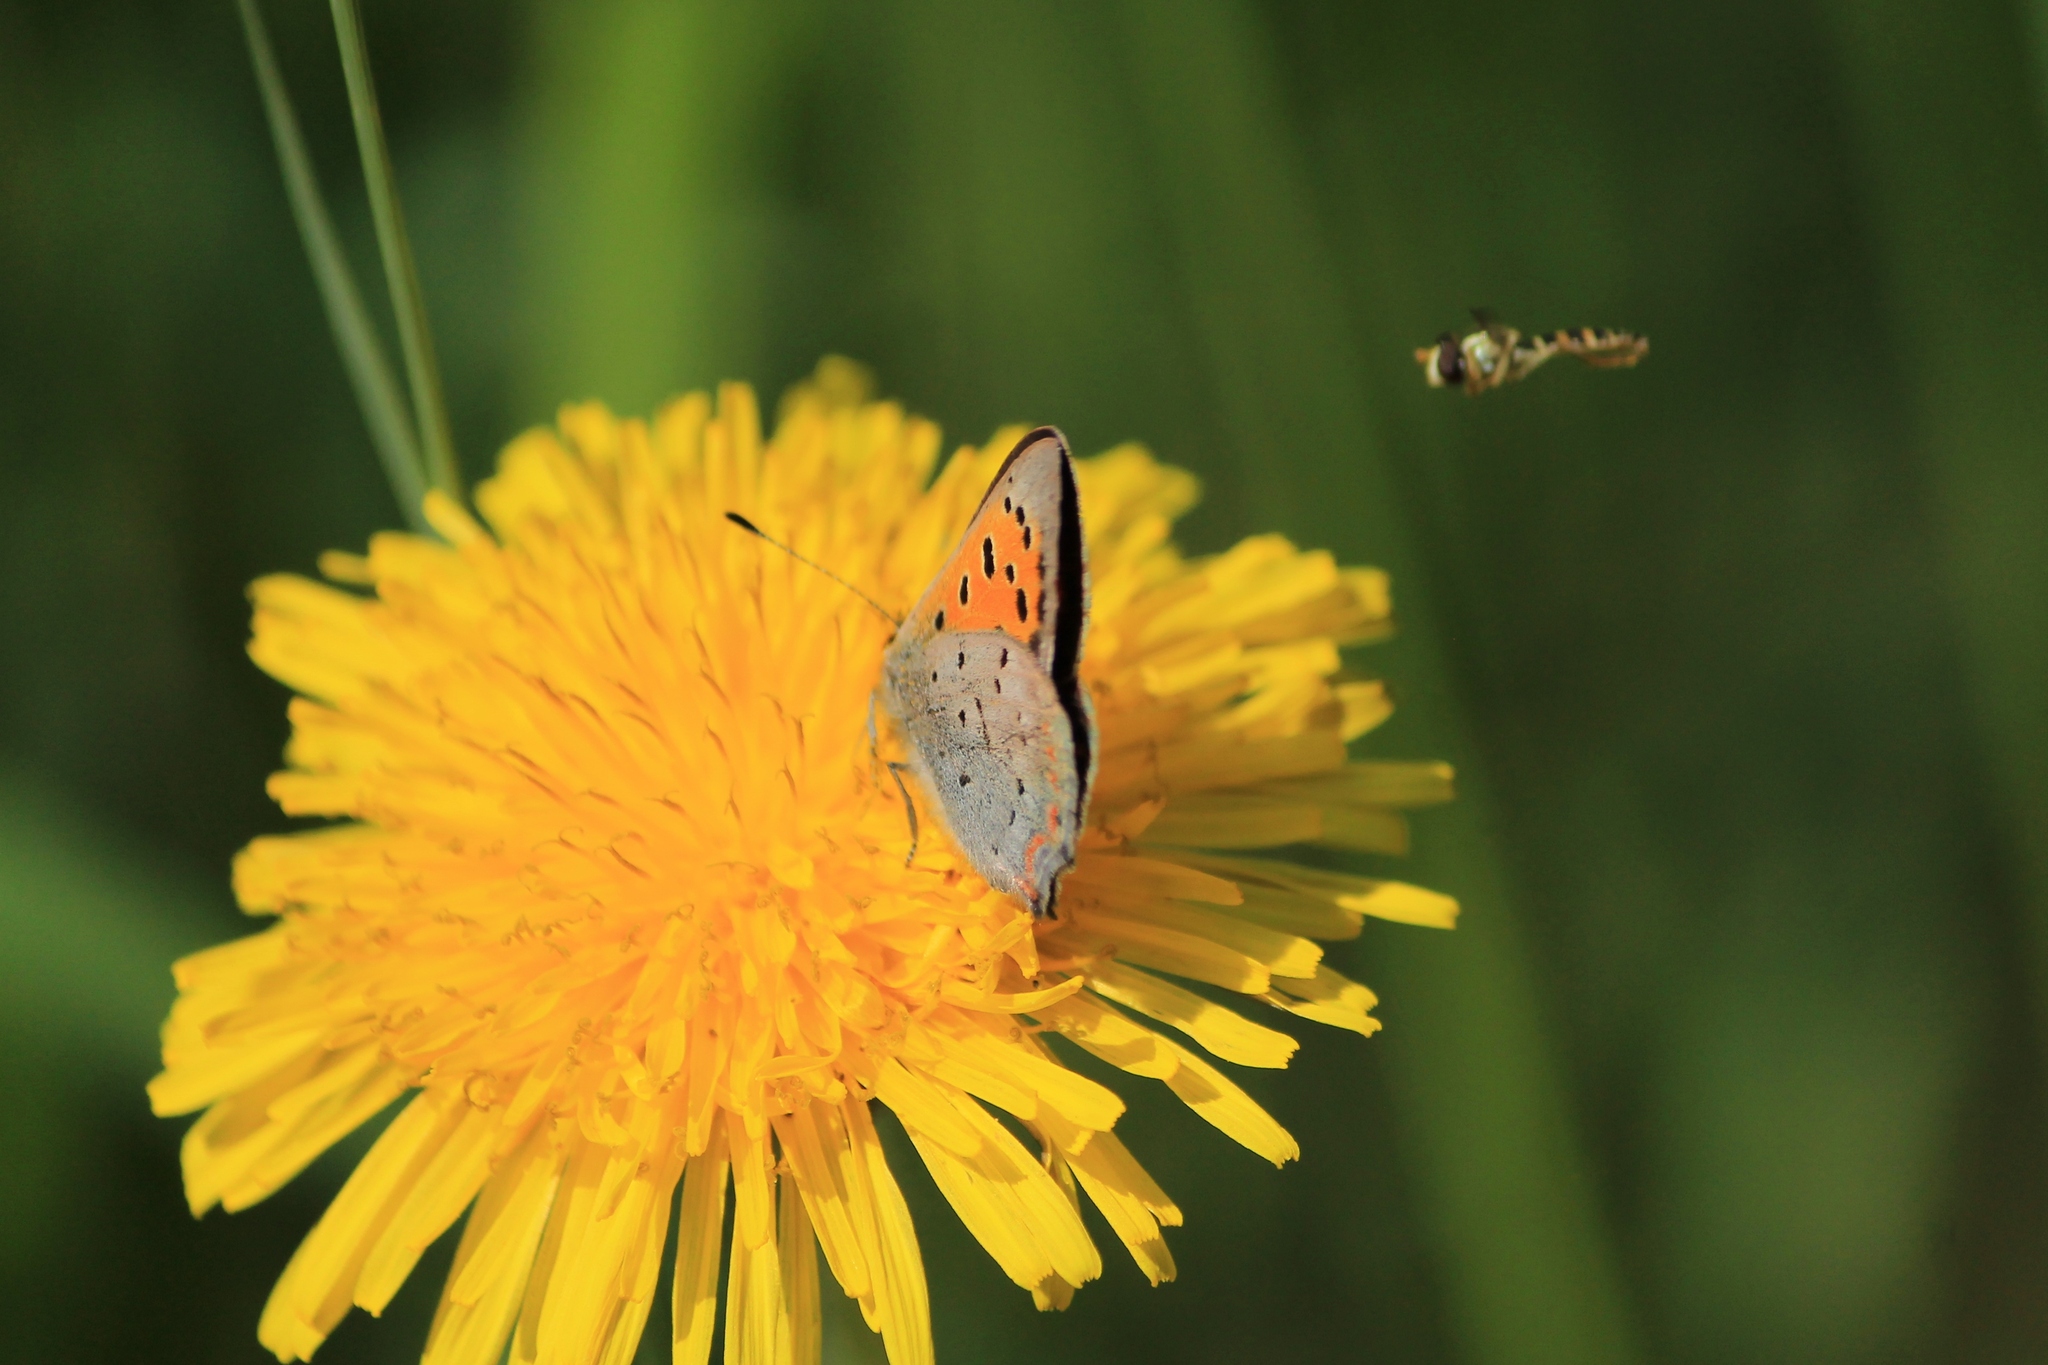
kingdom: Animalia
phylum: Arthropoda
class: Insecta
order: Lepidoptera
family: Lycaenidae
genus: Lycaena
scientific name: Lycaena phlaeas
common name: Small copper
